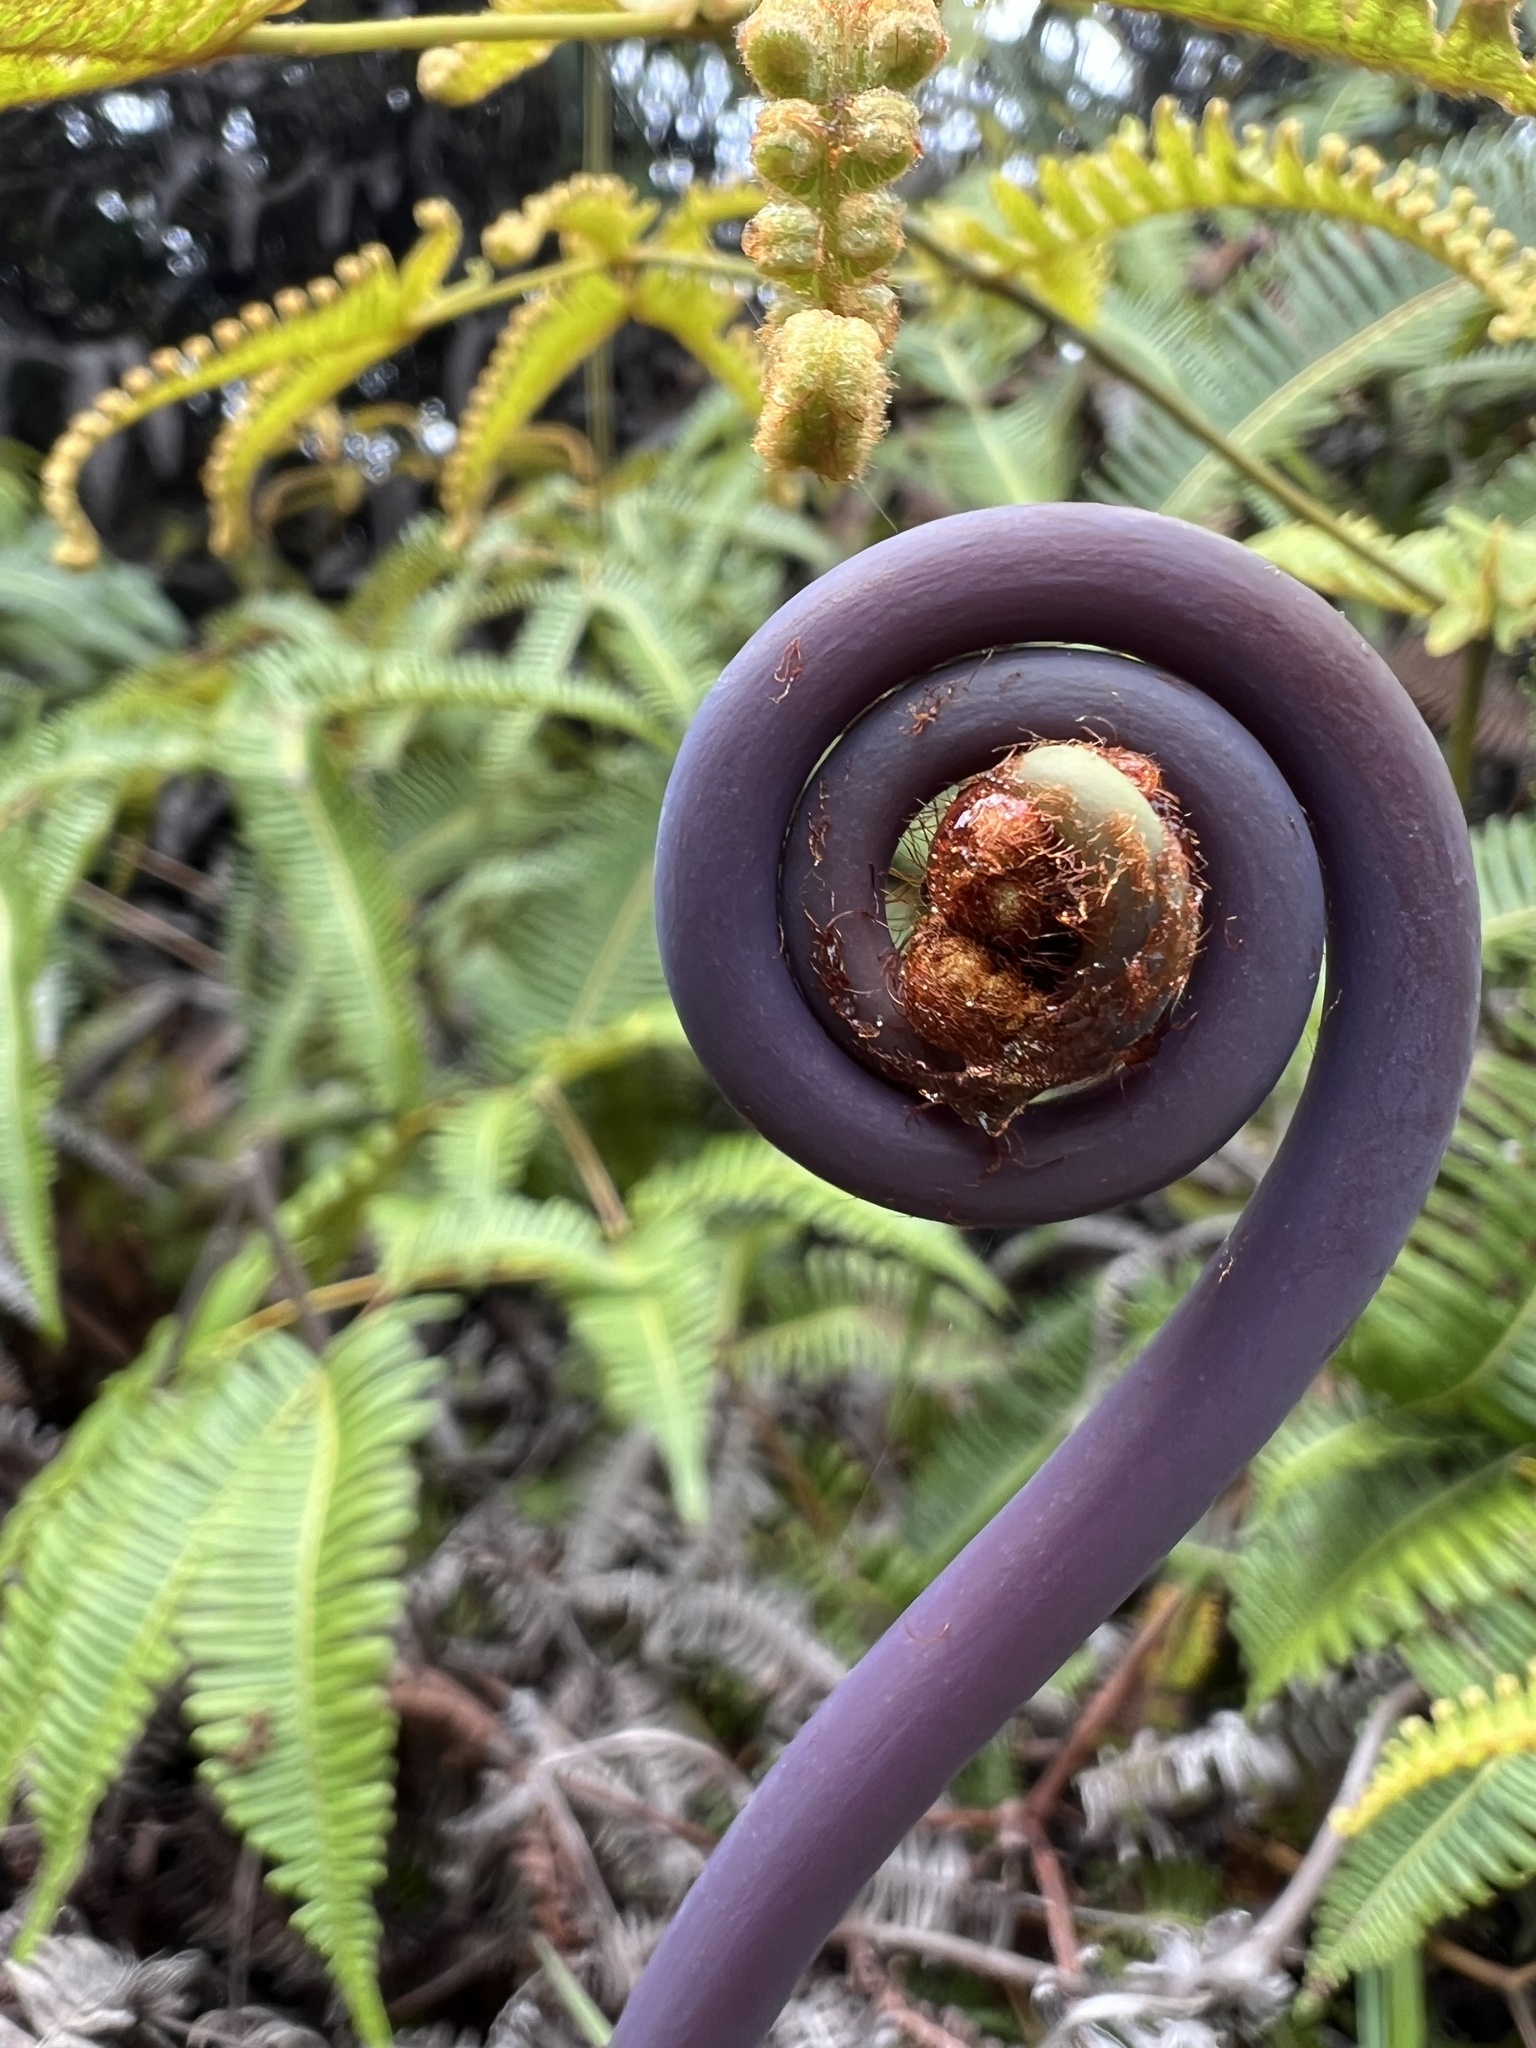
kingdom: Plantae
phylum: Tracheophyta
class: Polypodiopsida
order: Gleicheniales
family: Gleicheniaceae
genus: Dicranopteris
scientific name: Dicranopteris linearis
